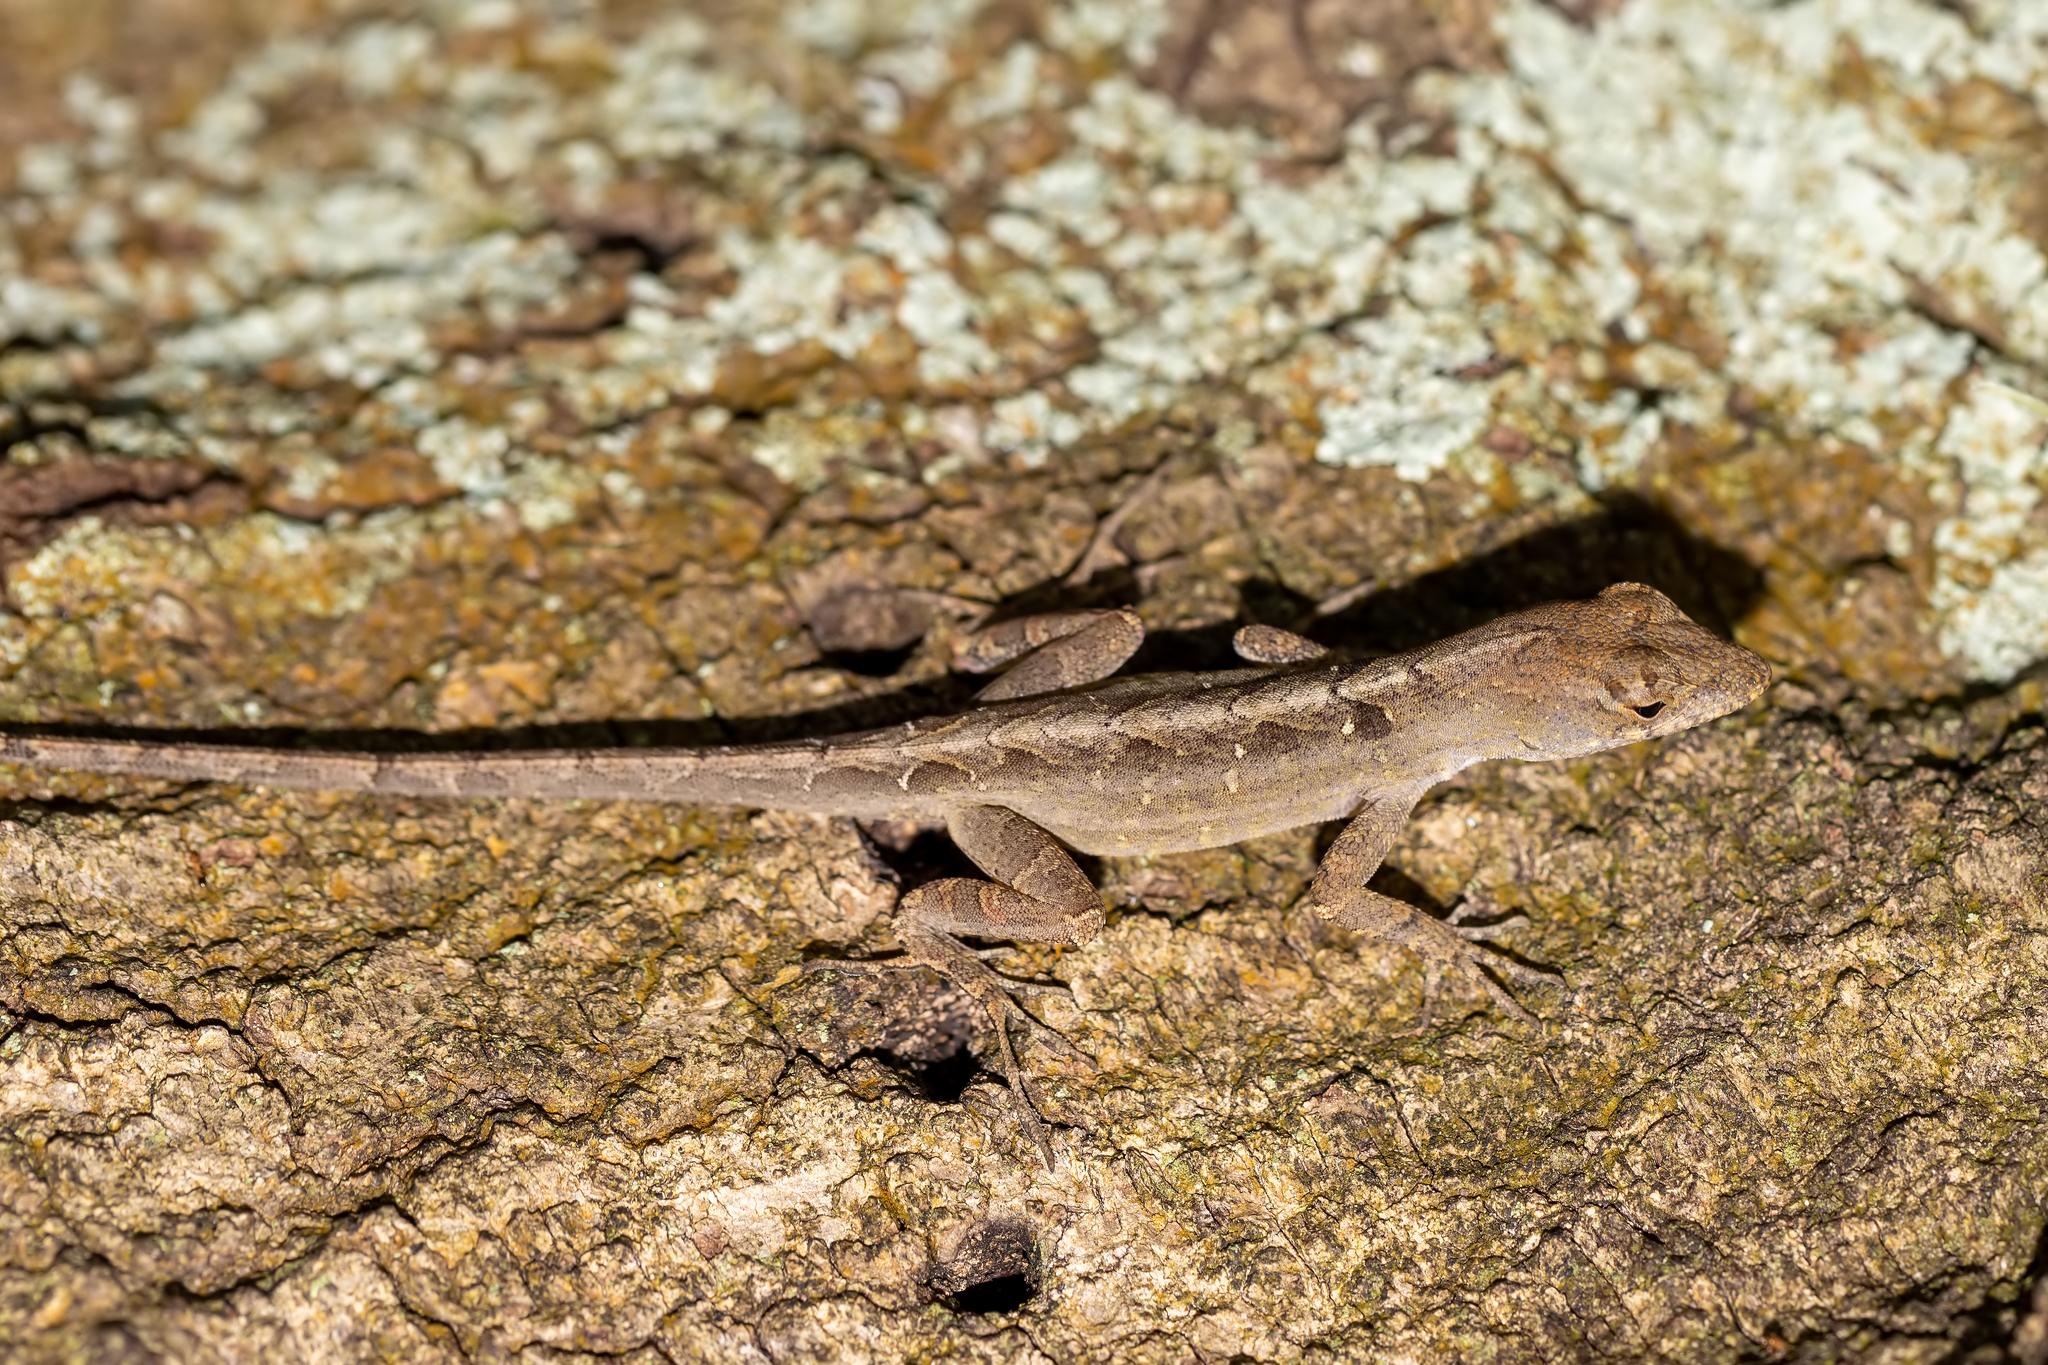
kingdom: Animalia
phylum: Chordata
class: Squamata
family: Dactyloidae
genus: Anolis
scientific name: Anolis sagrei
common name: Brown anole
